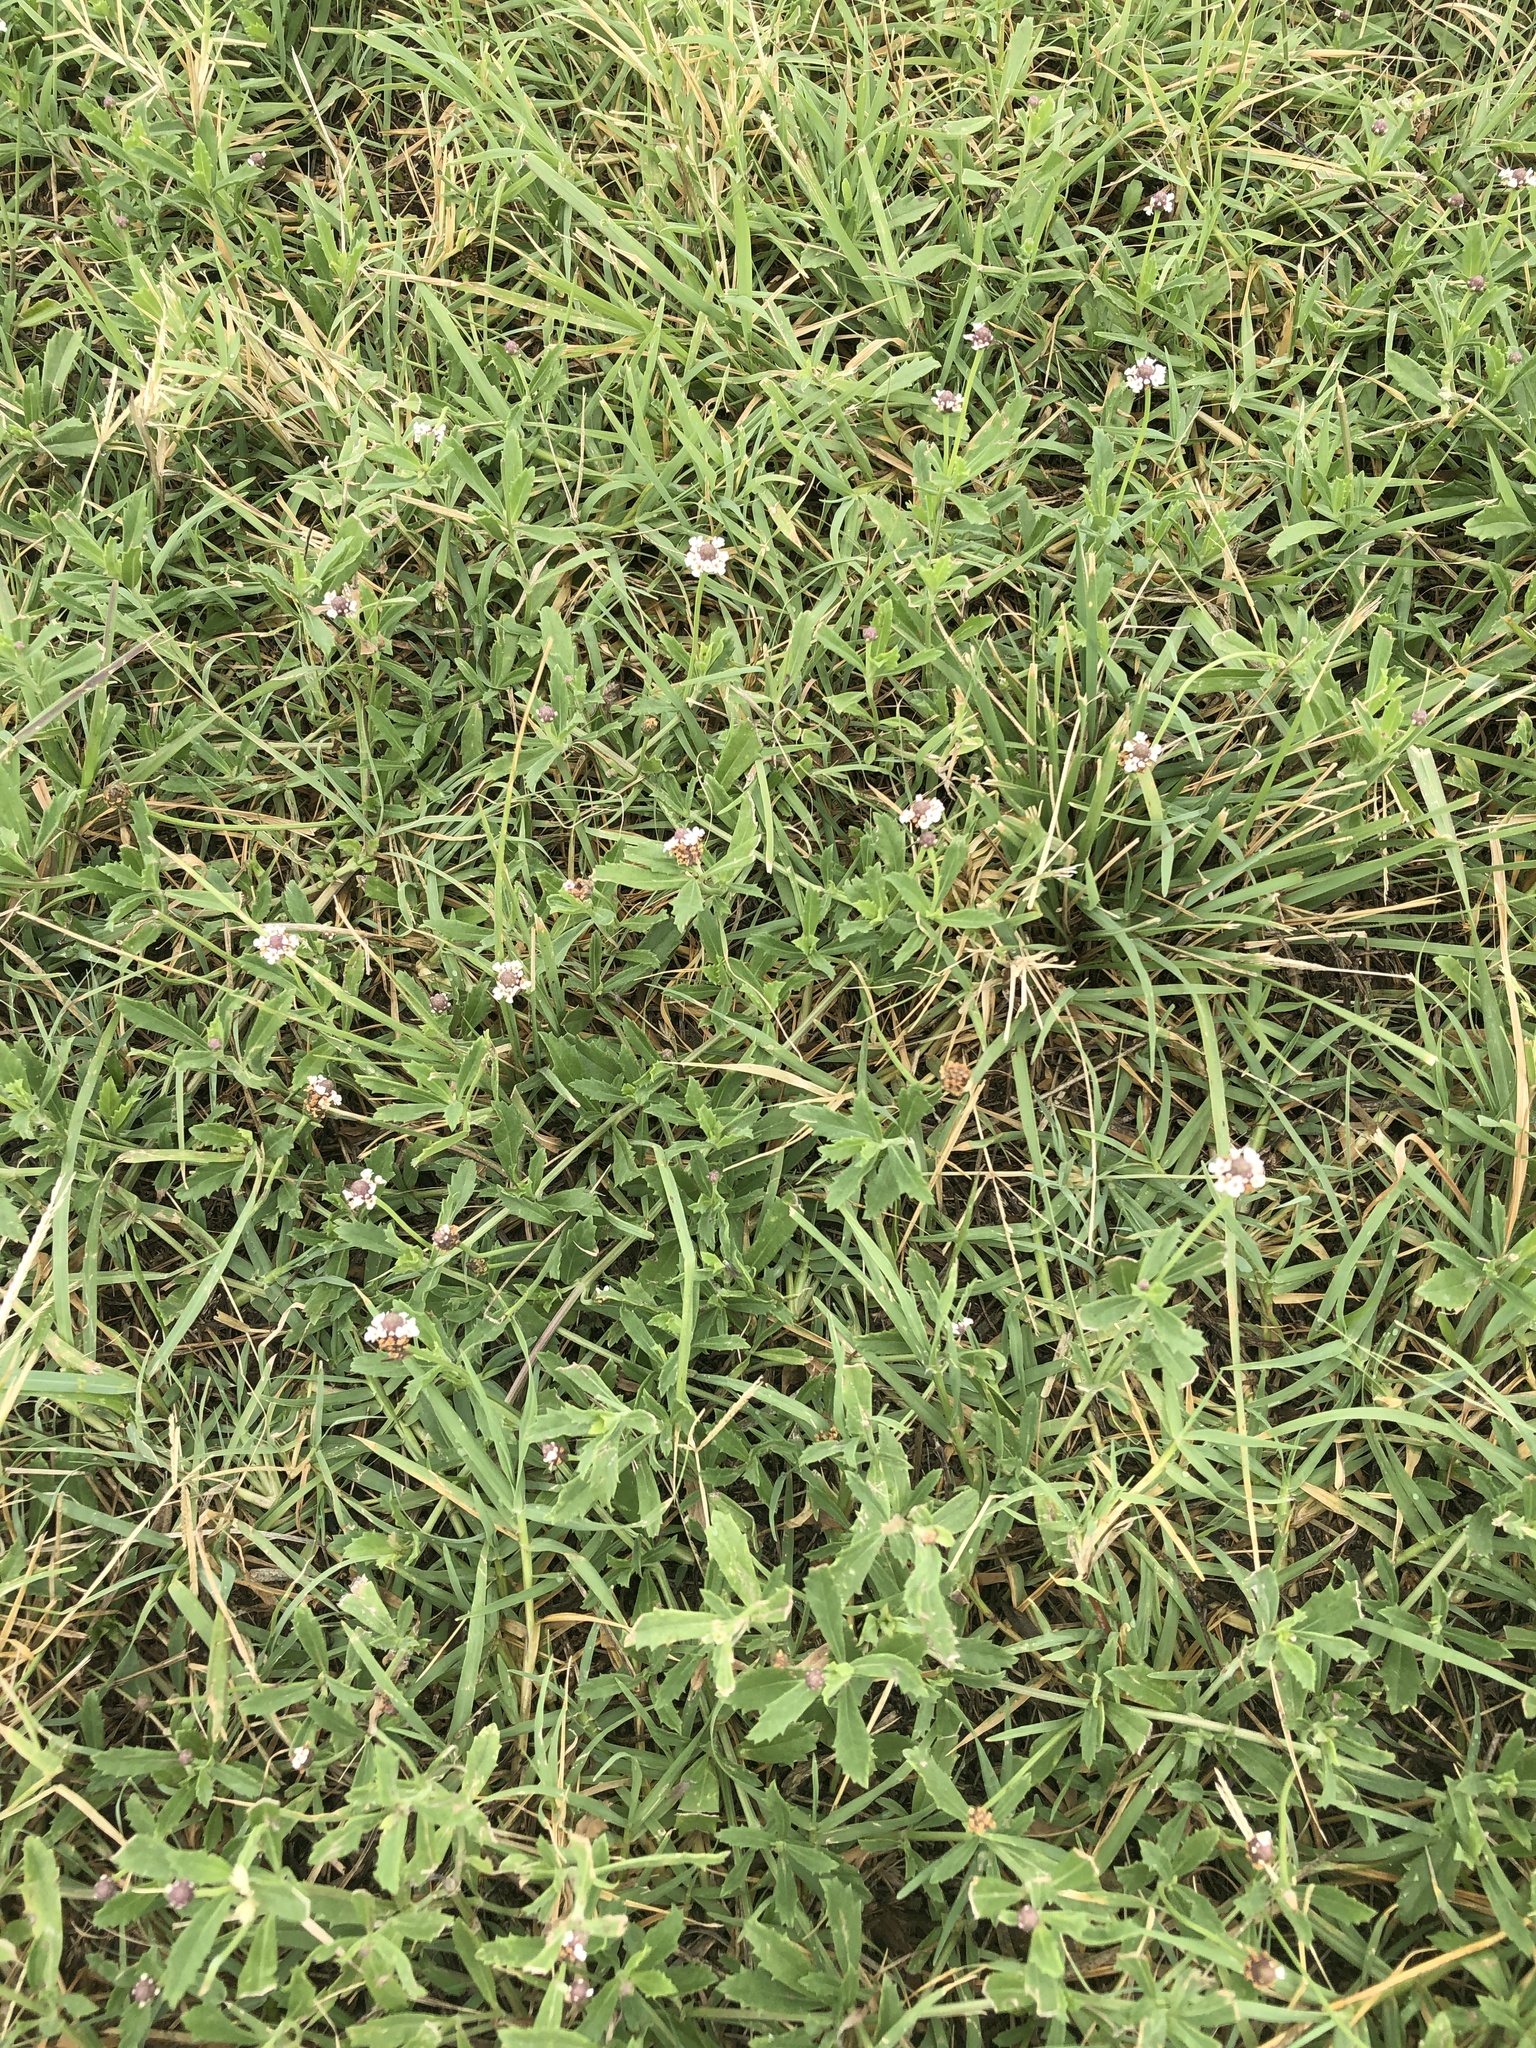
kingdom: Plantae
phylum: Tracheophyta
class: Magnoliopsida
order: Lamiales
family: Verbenaceae
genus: Phyla
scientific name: Phyla nodiflora
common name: Frogfruit
